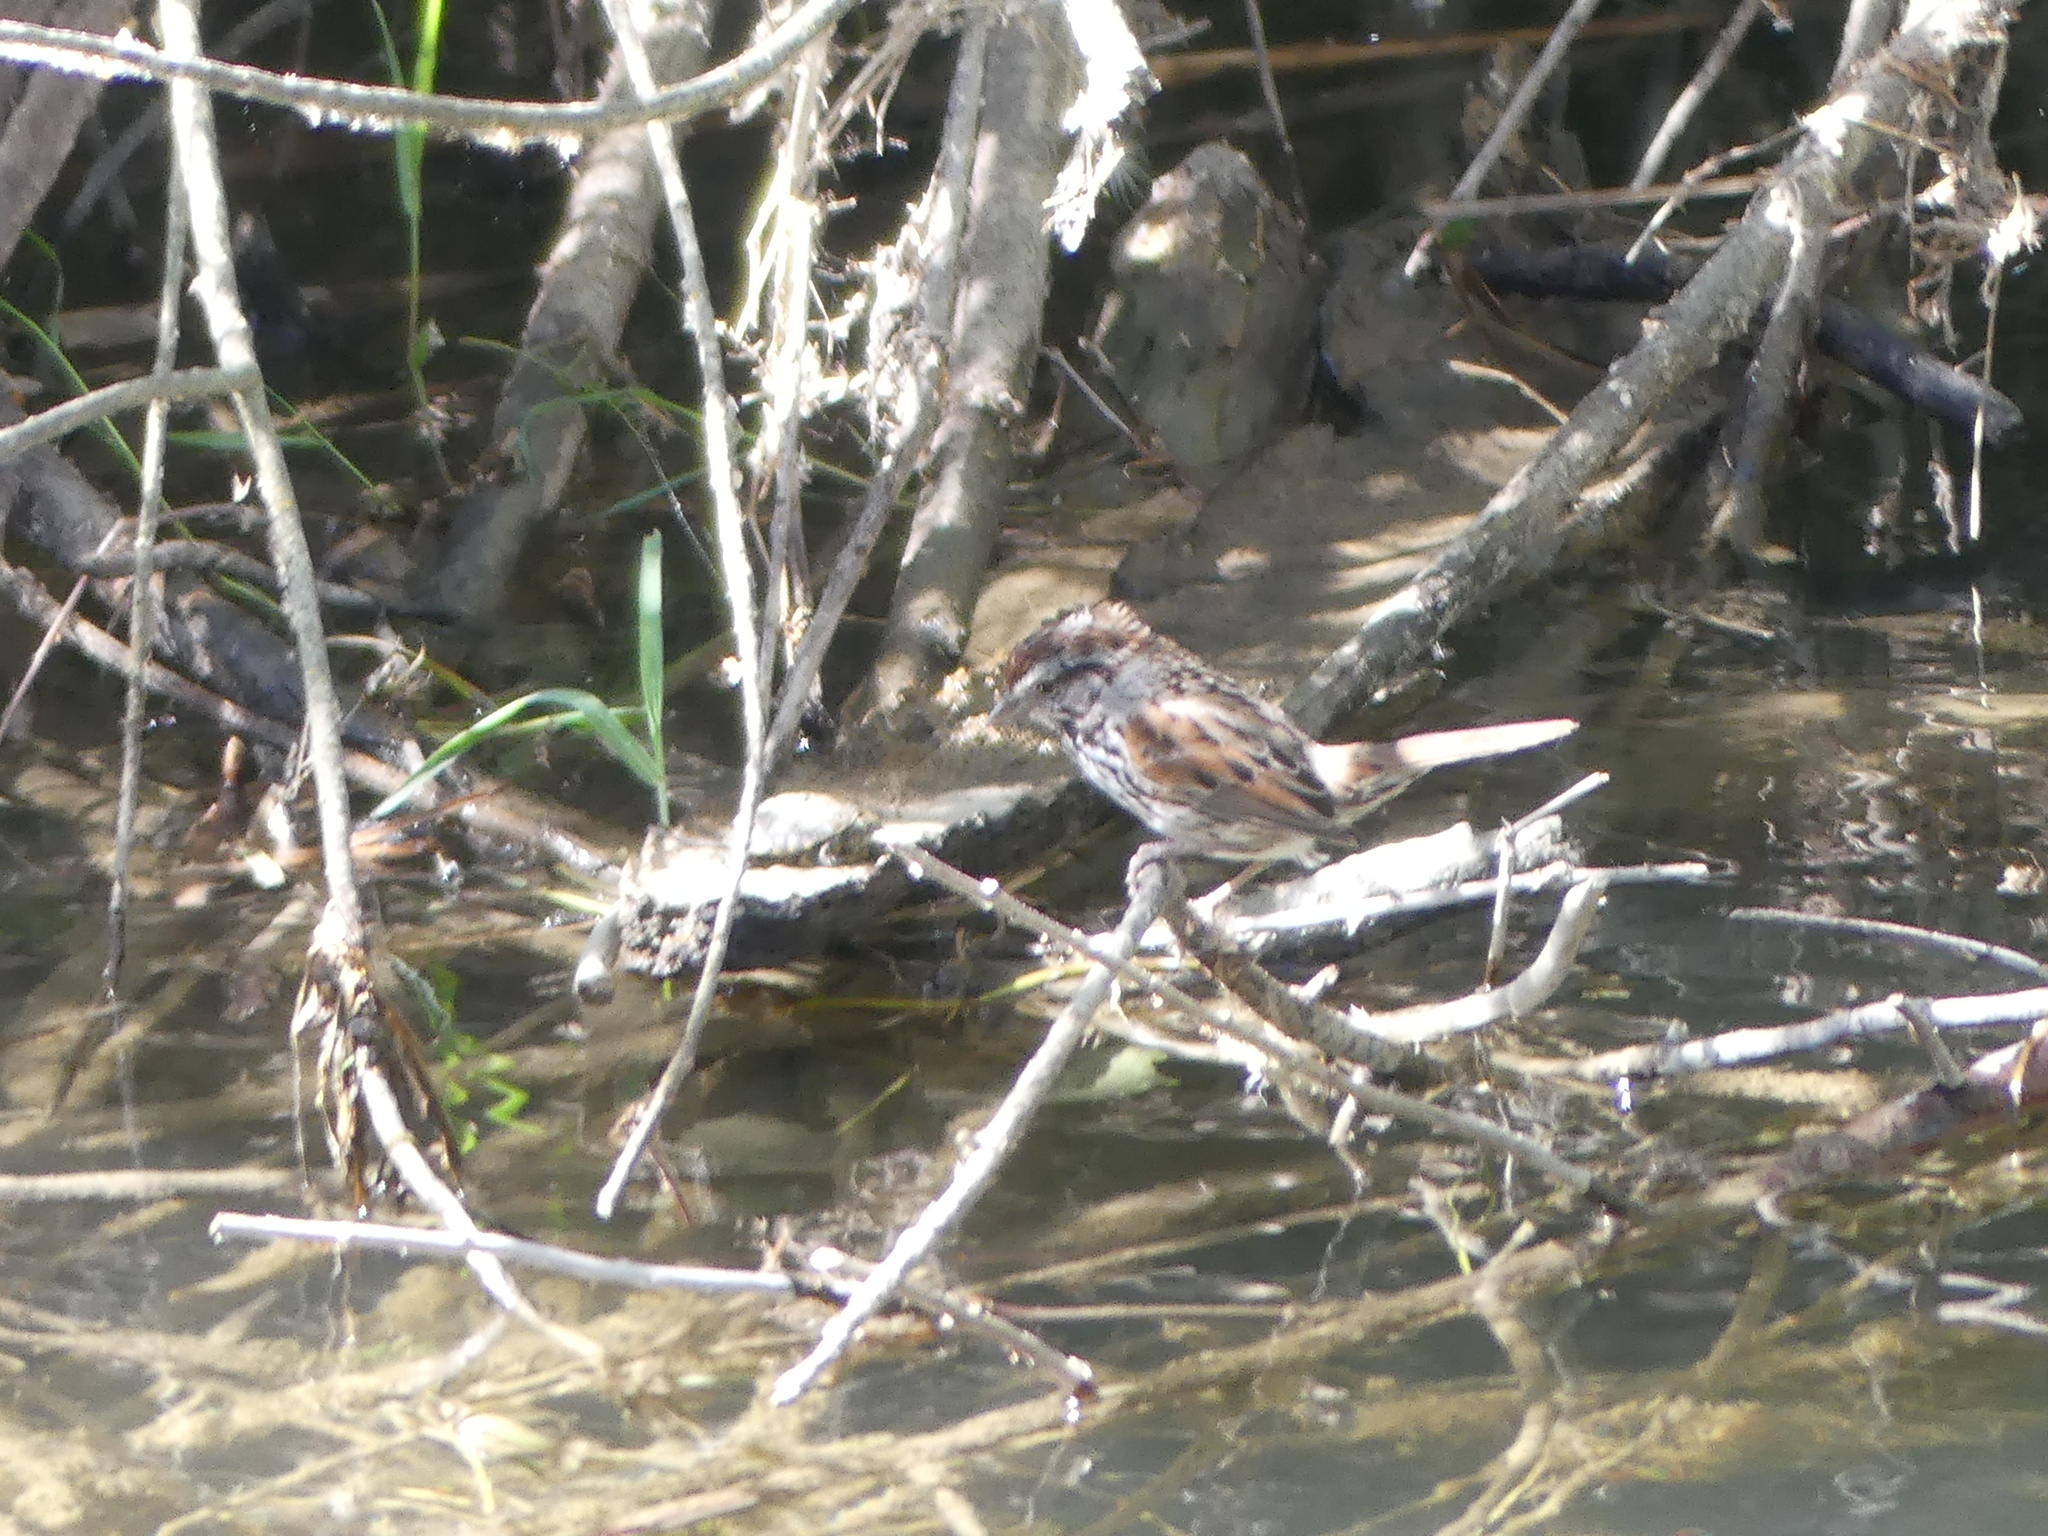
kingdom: Animalia
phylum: Chordata
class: Aves
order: Passeriformes
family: Passerellidae
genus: Melospiza
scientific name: Melospiza melodia
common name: Song sparrow
